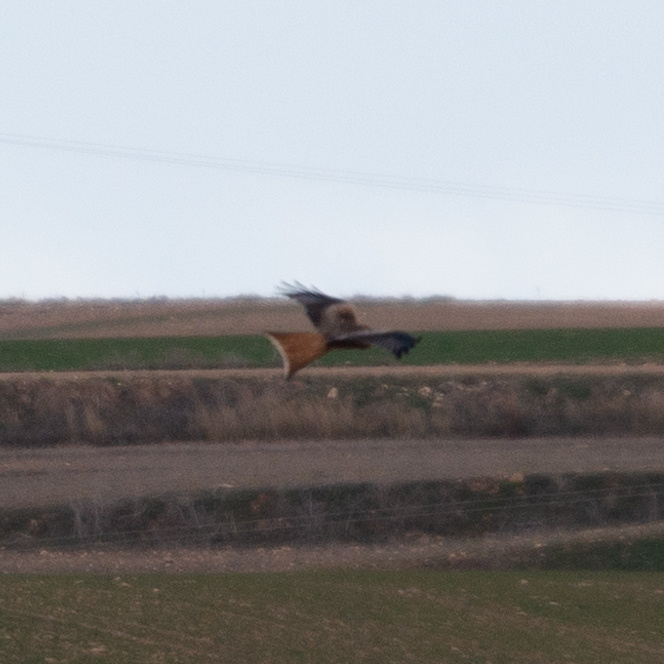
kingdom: Animalia
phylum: Chordata
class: Aves
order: Accipitriformes
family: Accipitridae
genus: Milvus
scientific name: Milvus milvus
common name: Red kite
